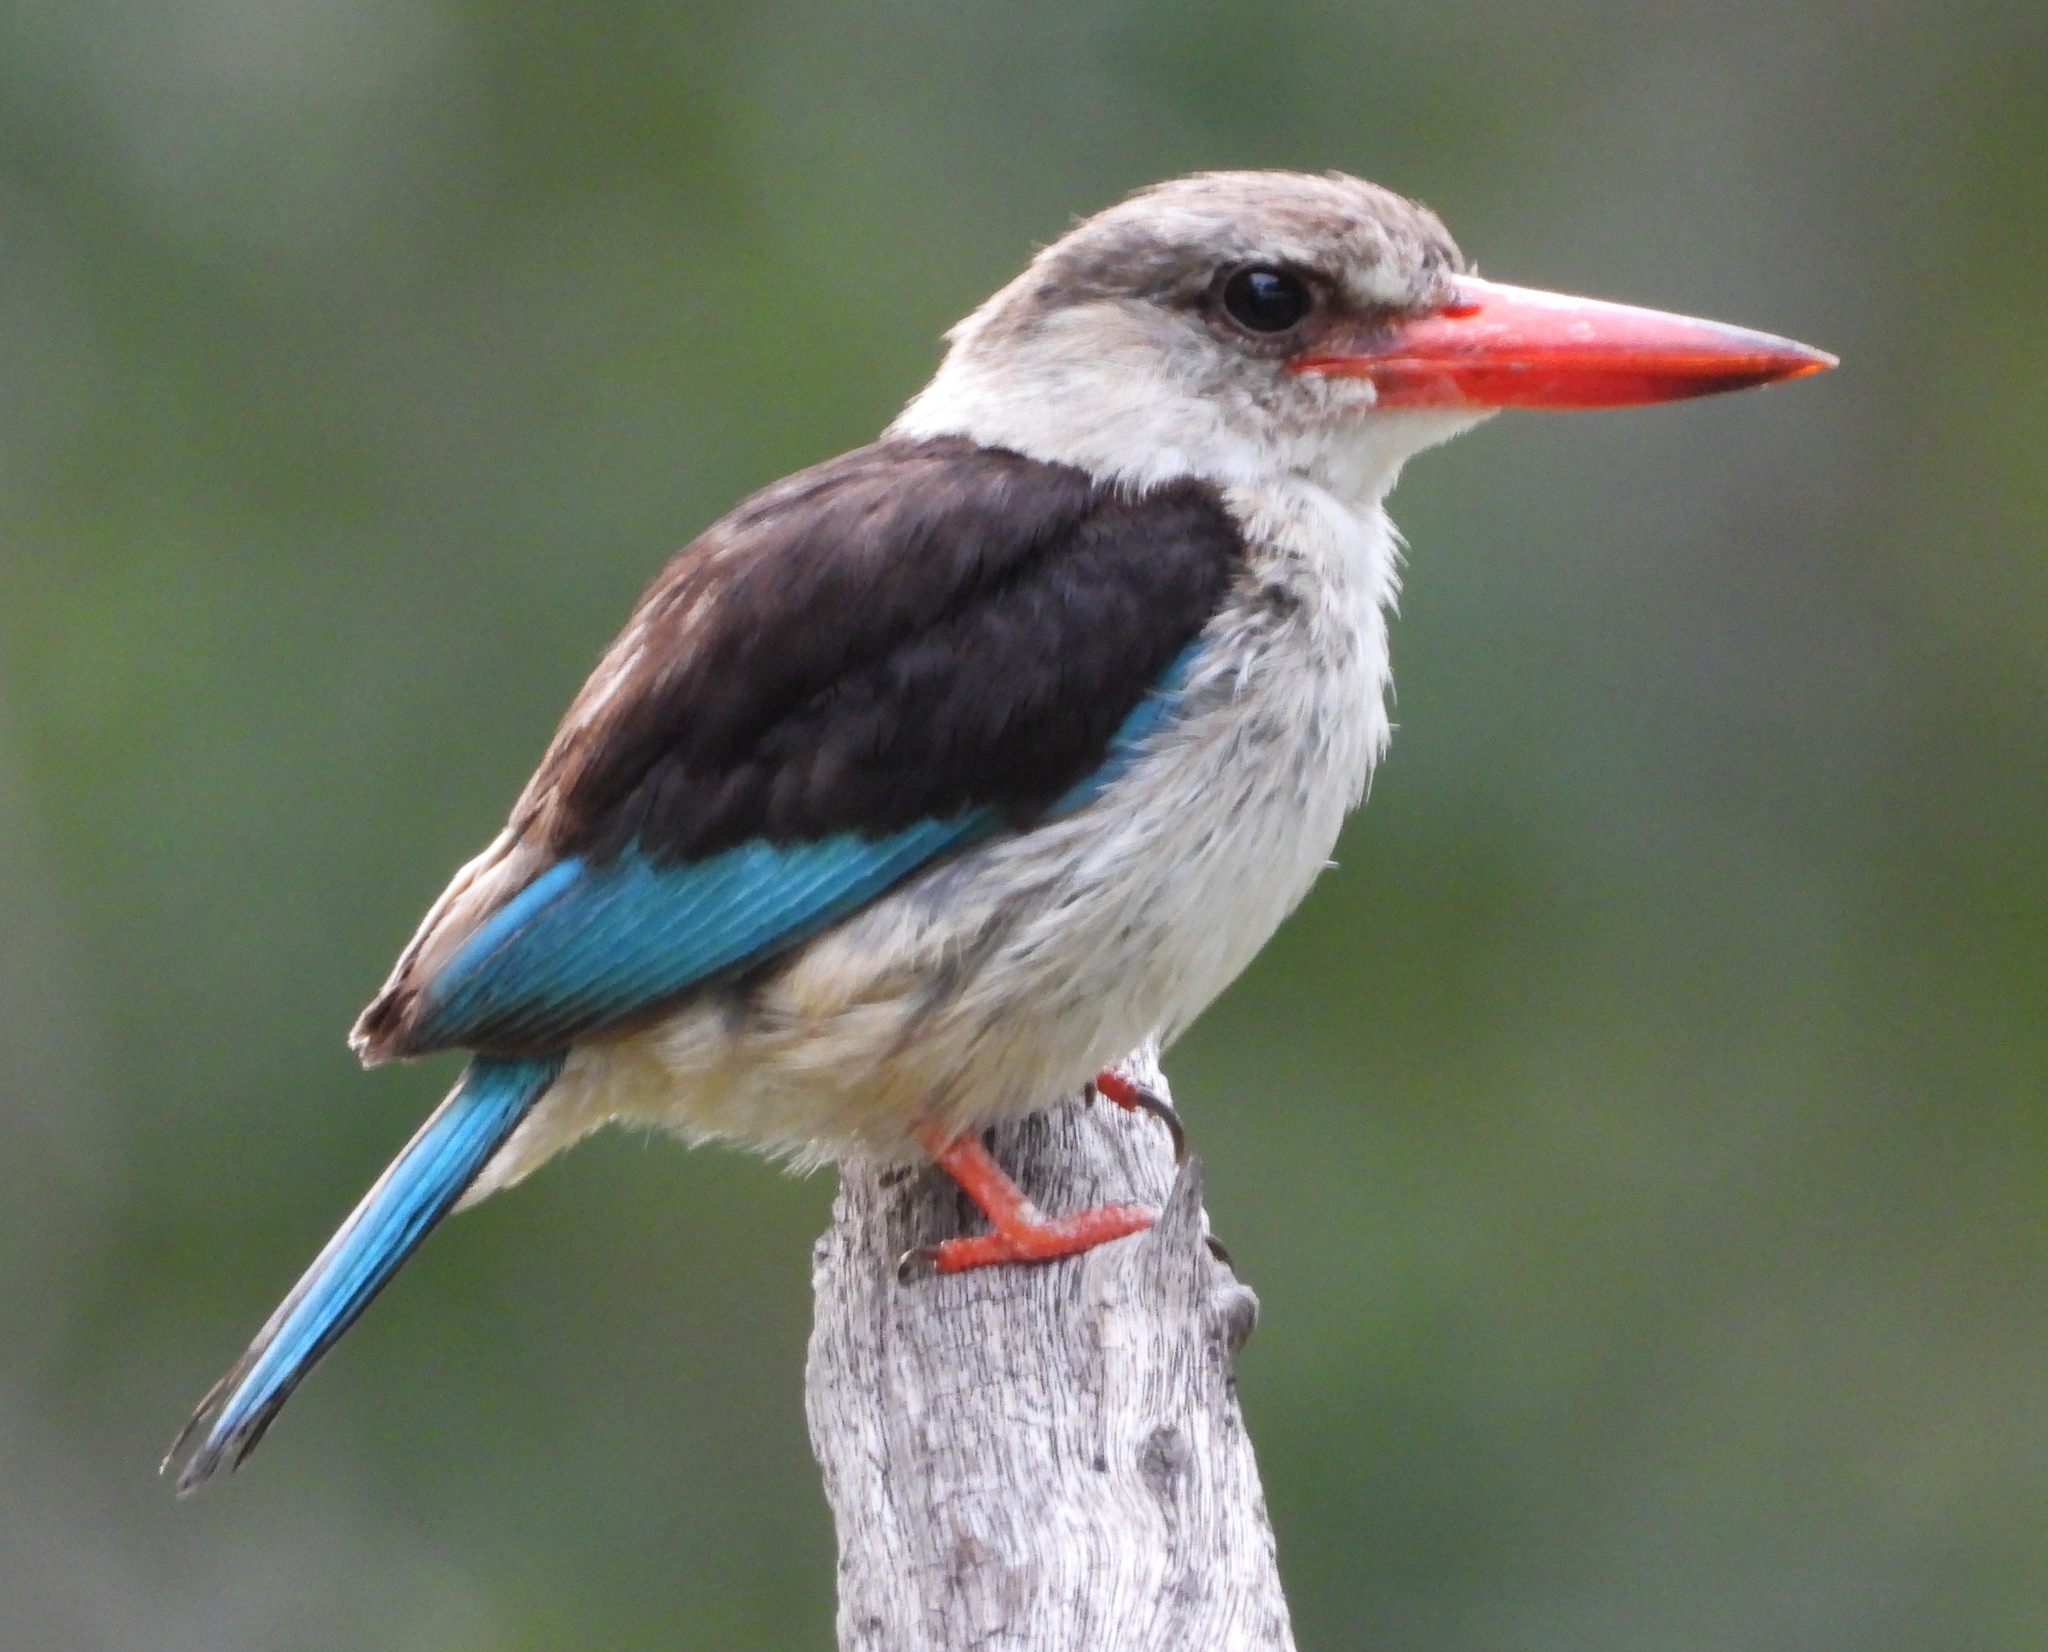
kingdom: Animalia
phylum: Chordata
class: Aves
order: Coraciiformes
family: Alcedinidae
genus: Halcyon
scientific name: Halcyon albiventris
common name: Brown-hooded kingfisher
